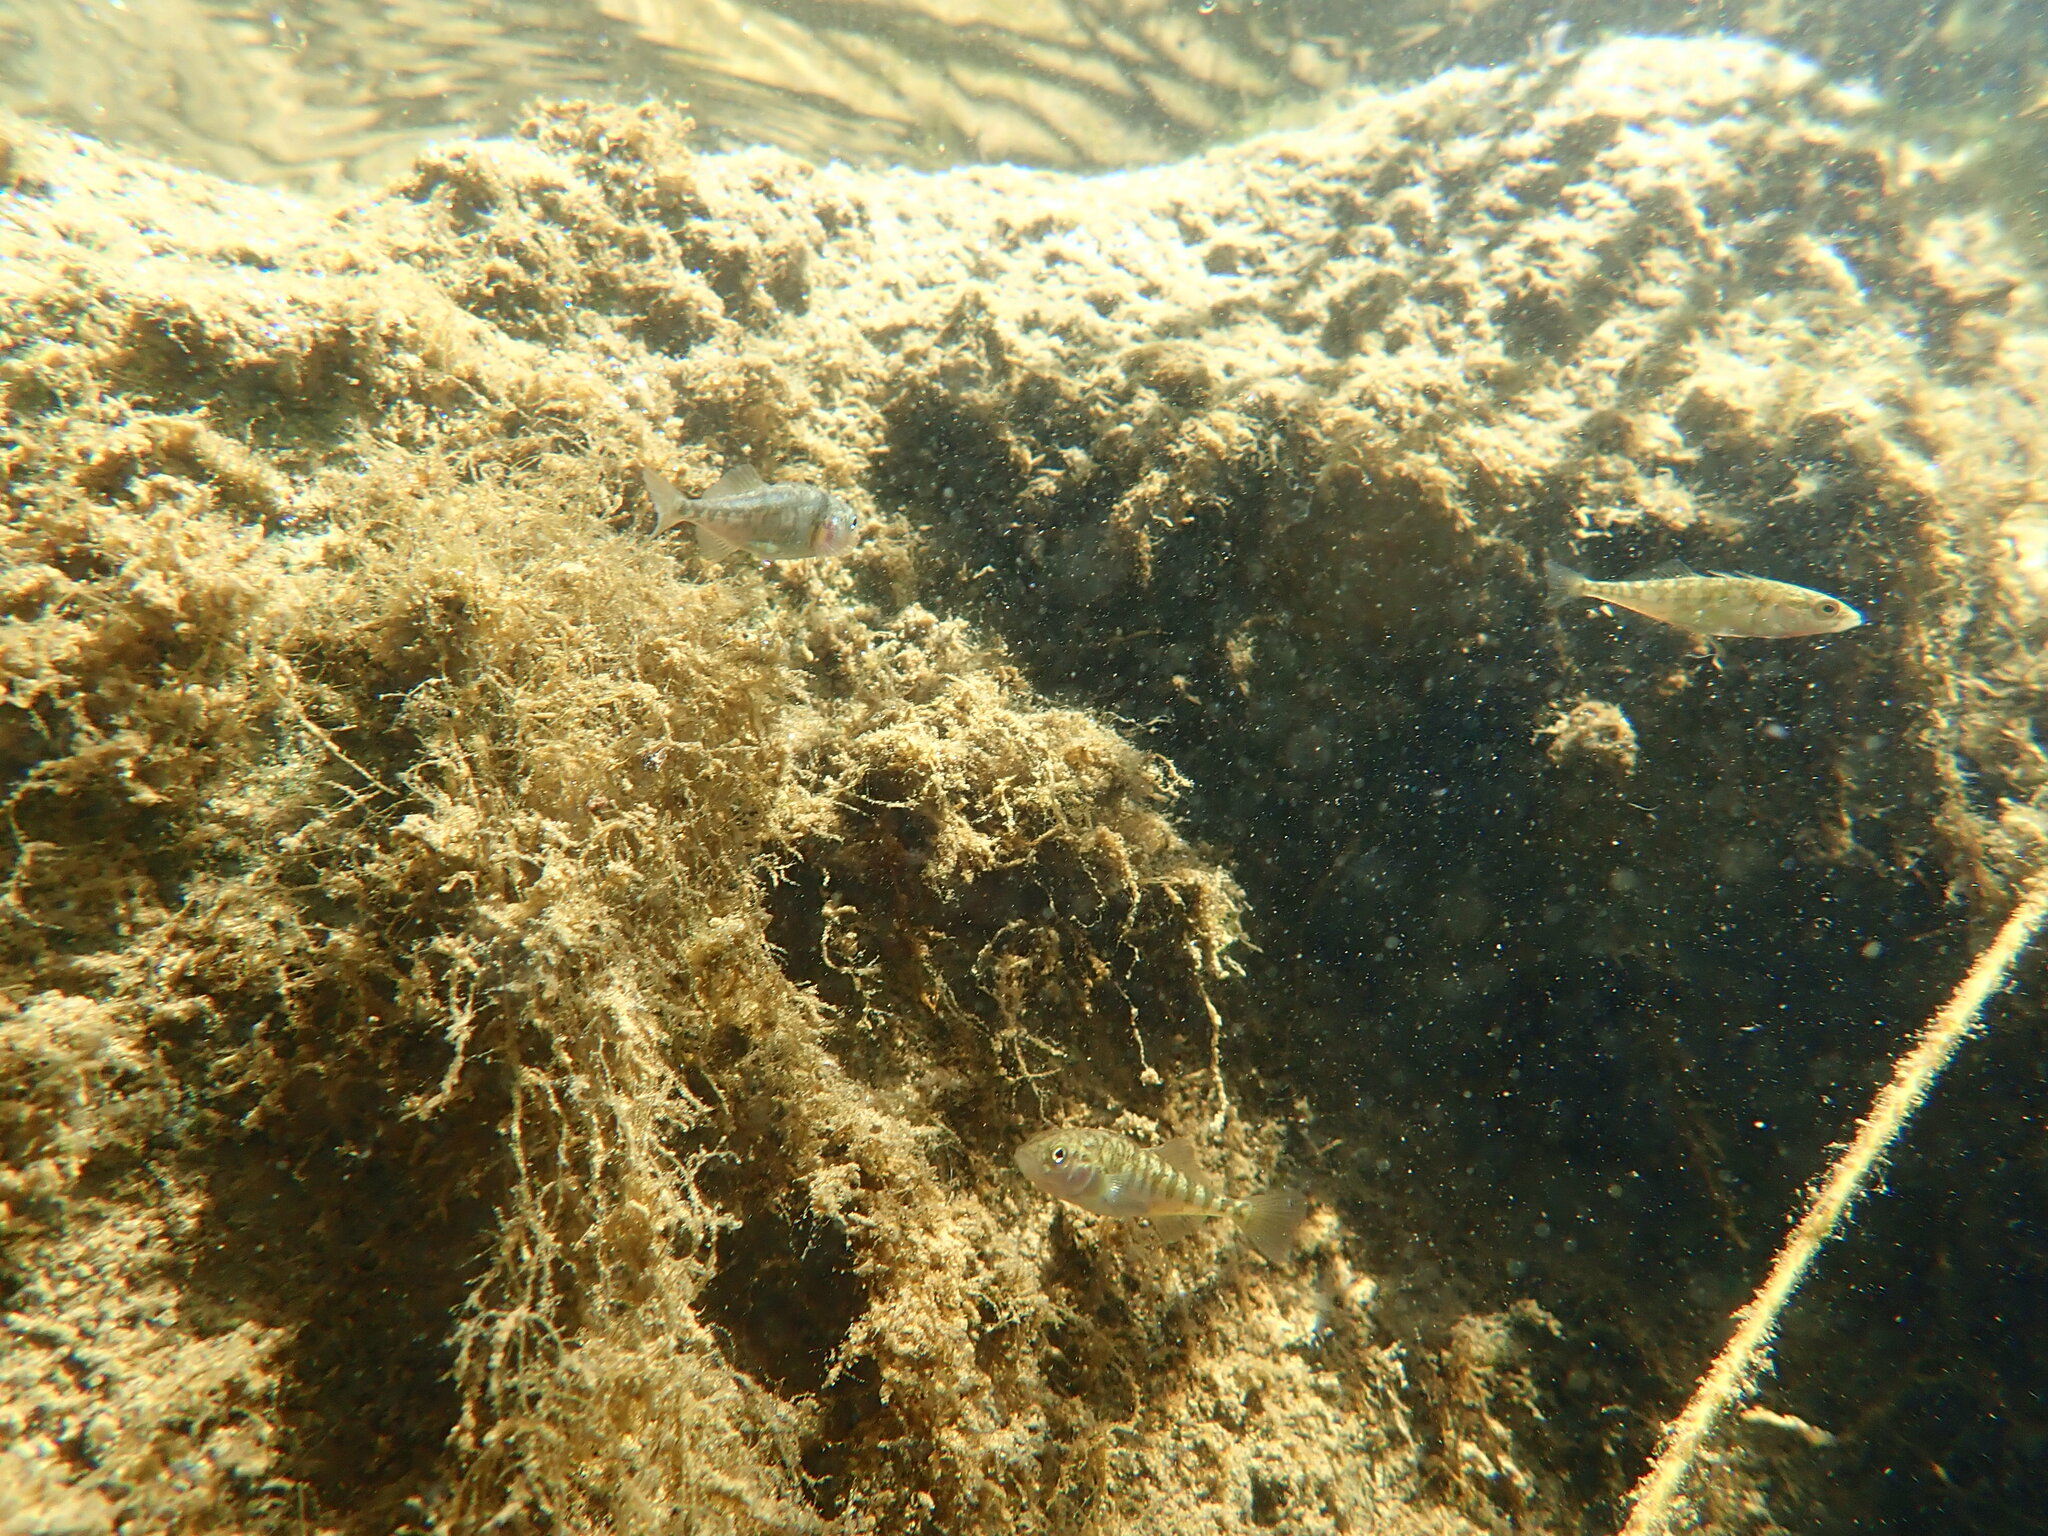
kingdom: Animalia
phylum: Chordata
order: Gasterosteiformes
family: Gasterosteidae
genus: Gasterosteus
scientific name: Gasterosteus aculeatus
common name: Three-spined stickleback
